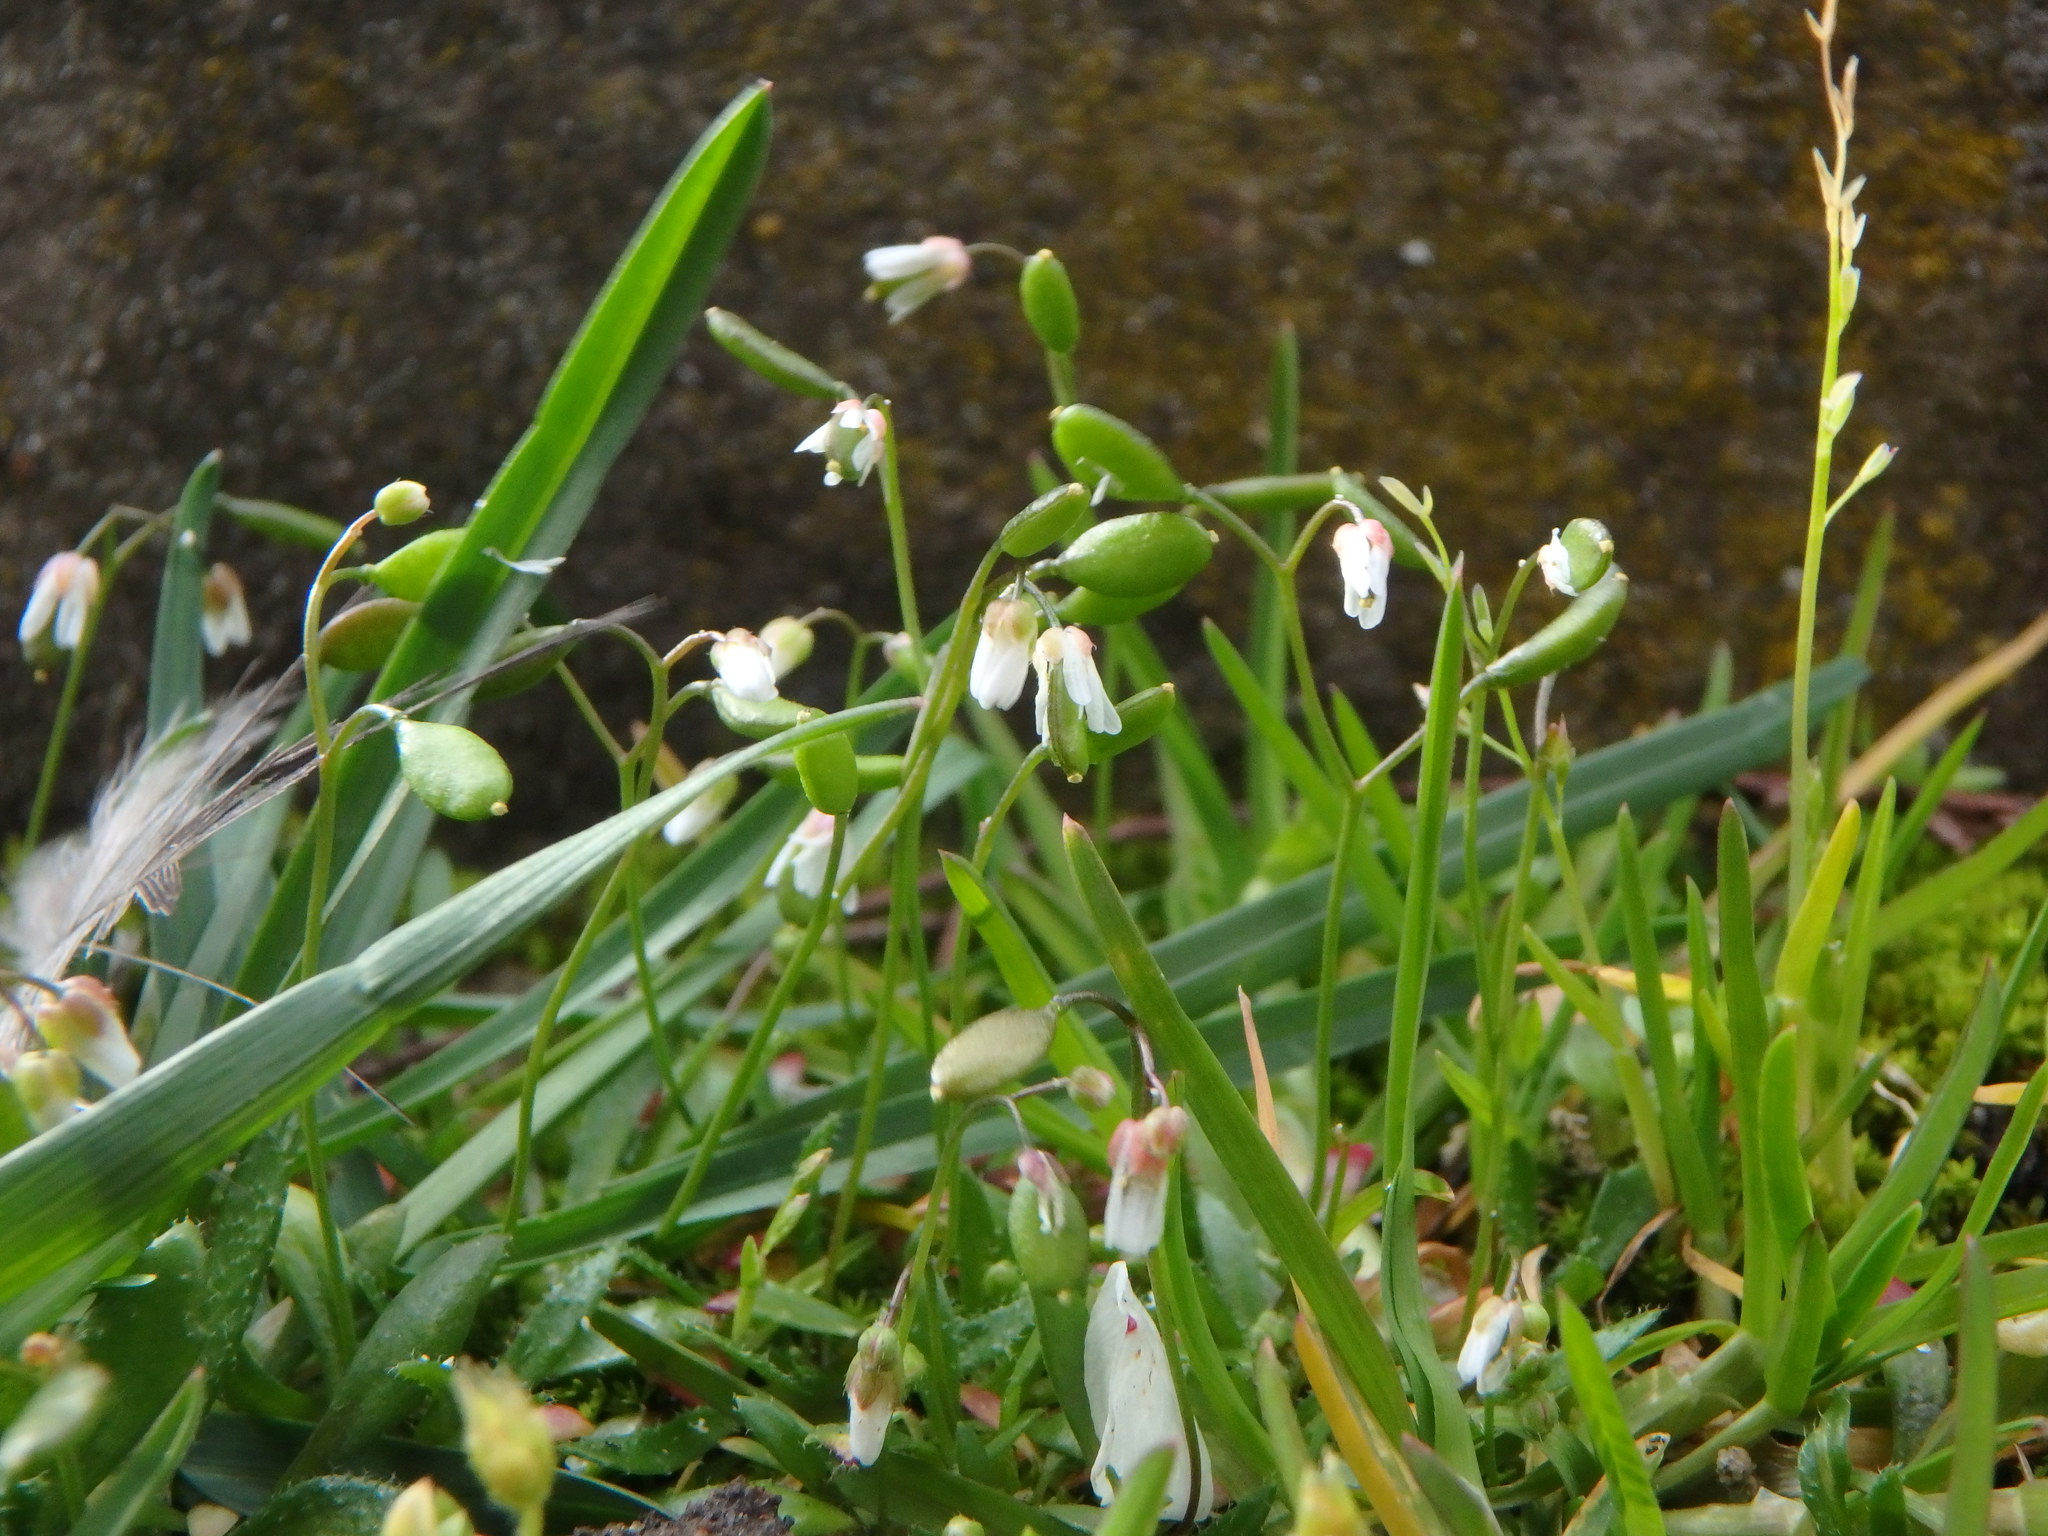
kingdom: Plantae
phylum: Tracheophyta
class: Magnoliopsida
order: Brassicales
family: Brassicaceae
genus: Draba
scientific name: Draba verna
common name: Spring draba
